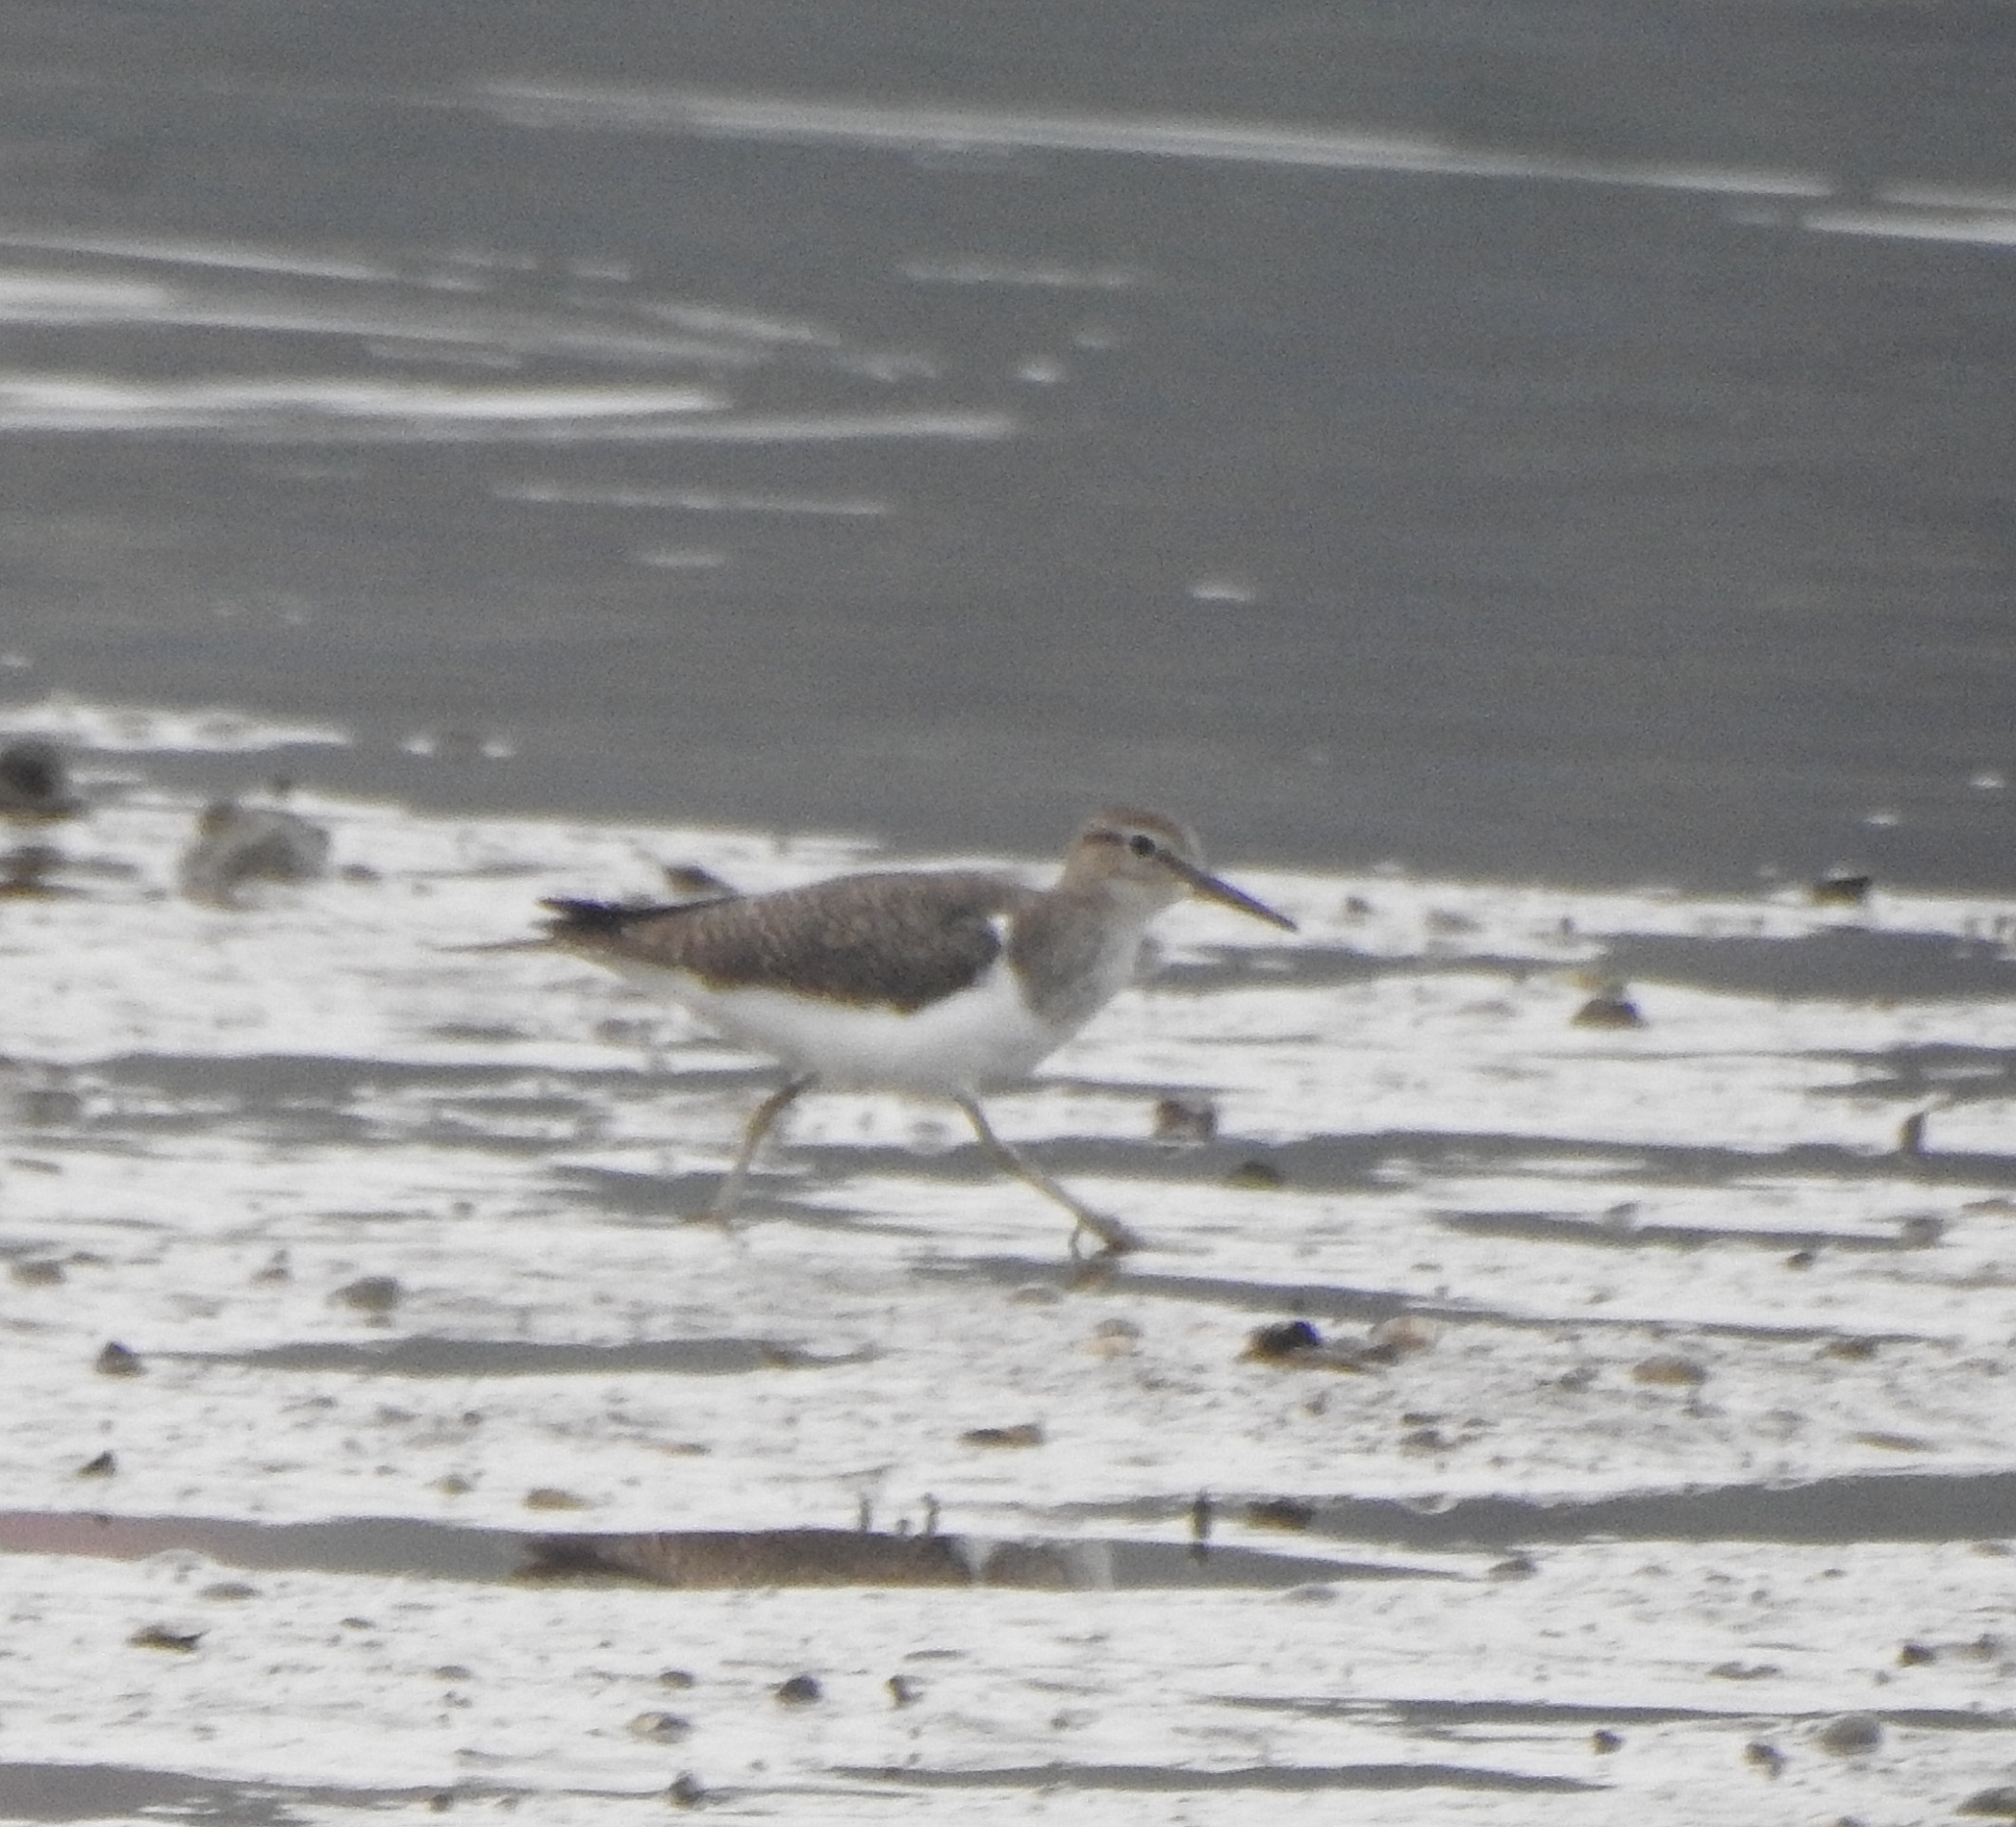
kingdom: Animalia
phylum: Chordata
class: Aves
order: Charadriiformes
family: Scolopacidae
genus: Actitis
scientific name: Actitis hypoleucos
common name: Common sandpiper
